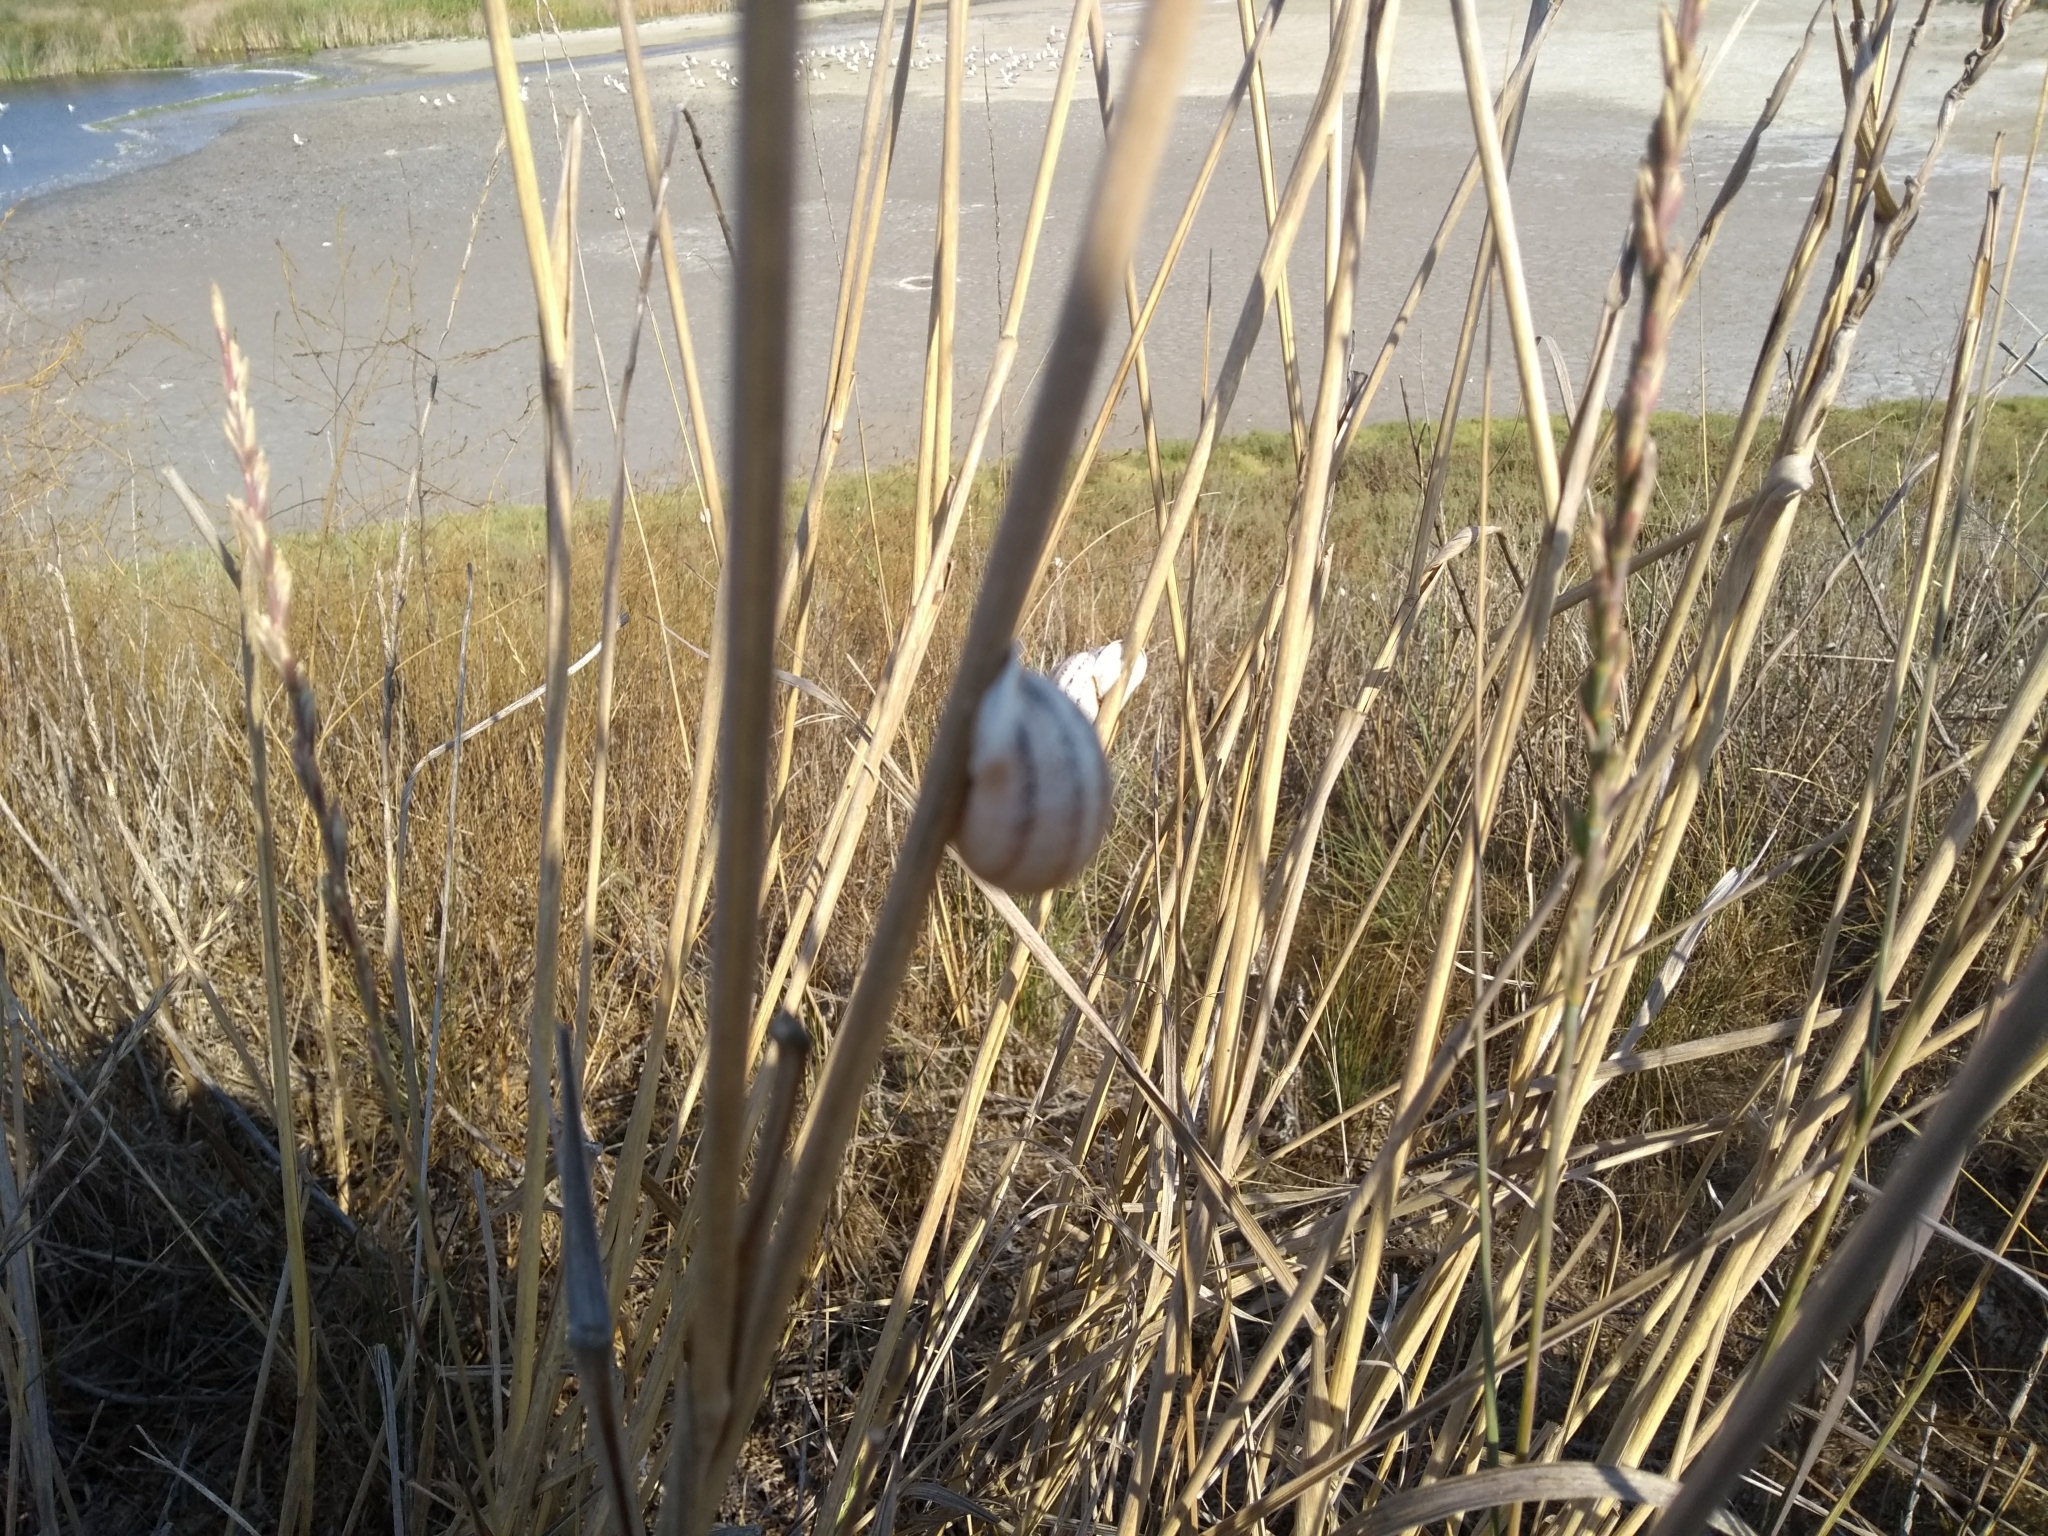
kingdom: Animalia
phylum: Mollusca
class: Gastropoda
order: Stylommatophora
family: Helicidae
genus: Otala
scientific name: Otala lactea
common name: Milk snail
